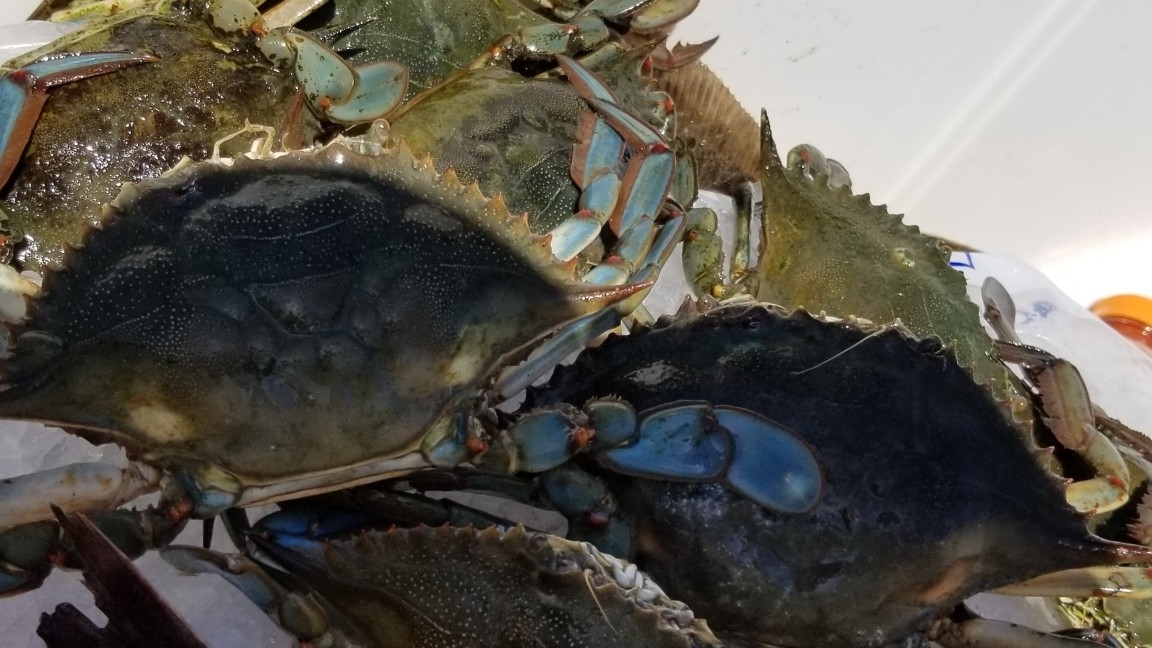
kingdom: Animalia
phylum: Arthropoda
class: Malacostraca
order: Decapoda
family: Portunidae
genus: Callinectes
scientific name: Callinectes sapidus
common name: Blue crab
